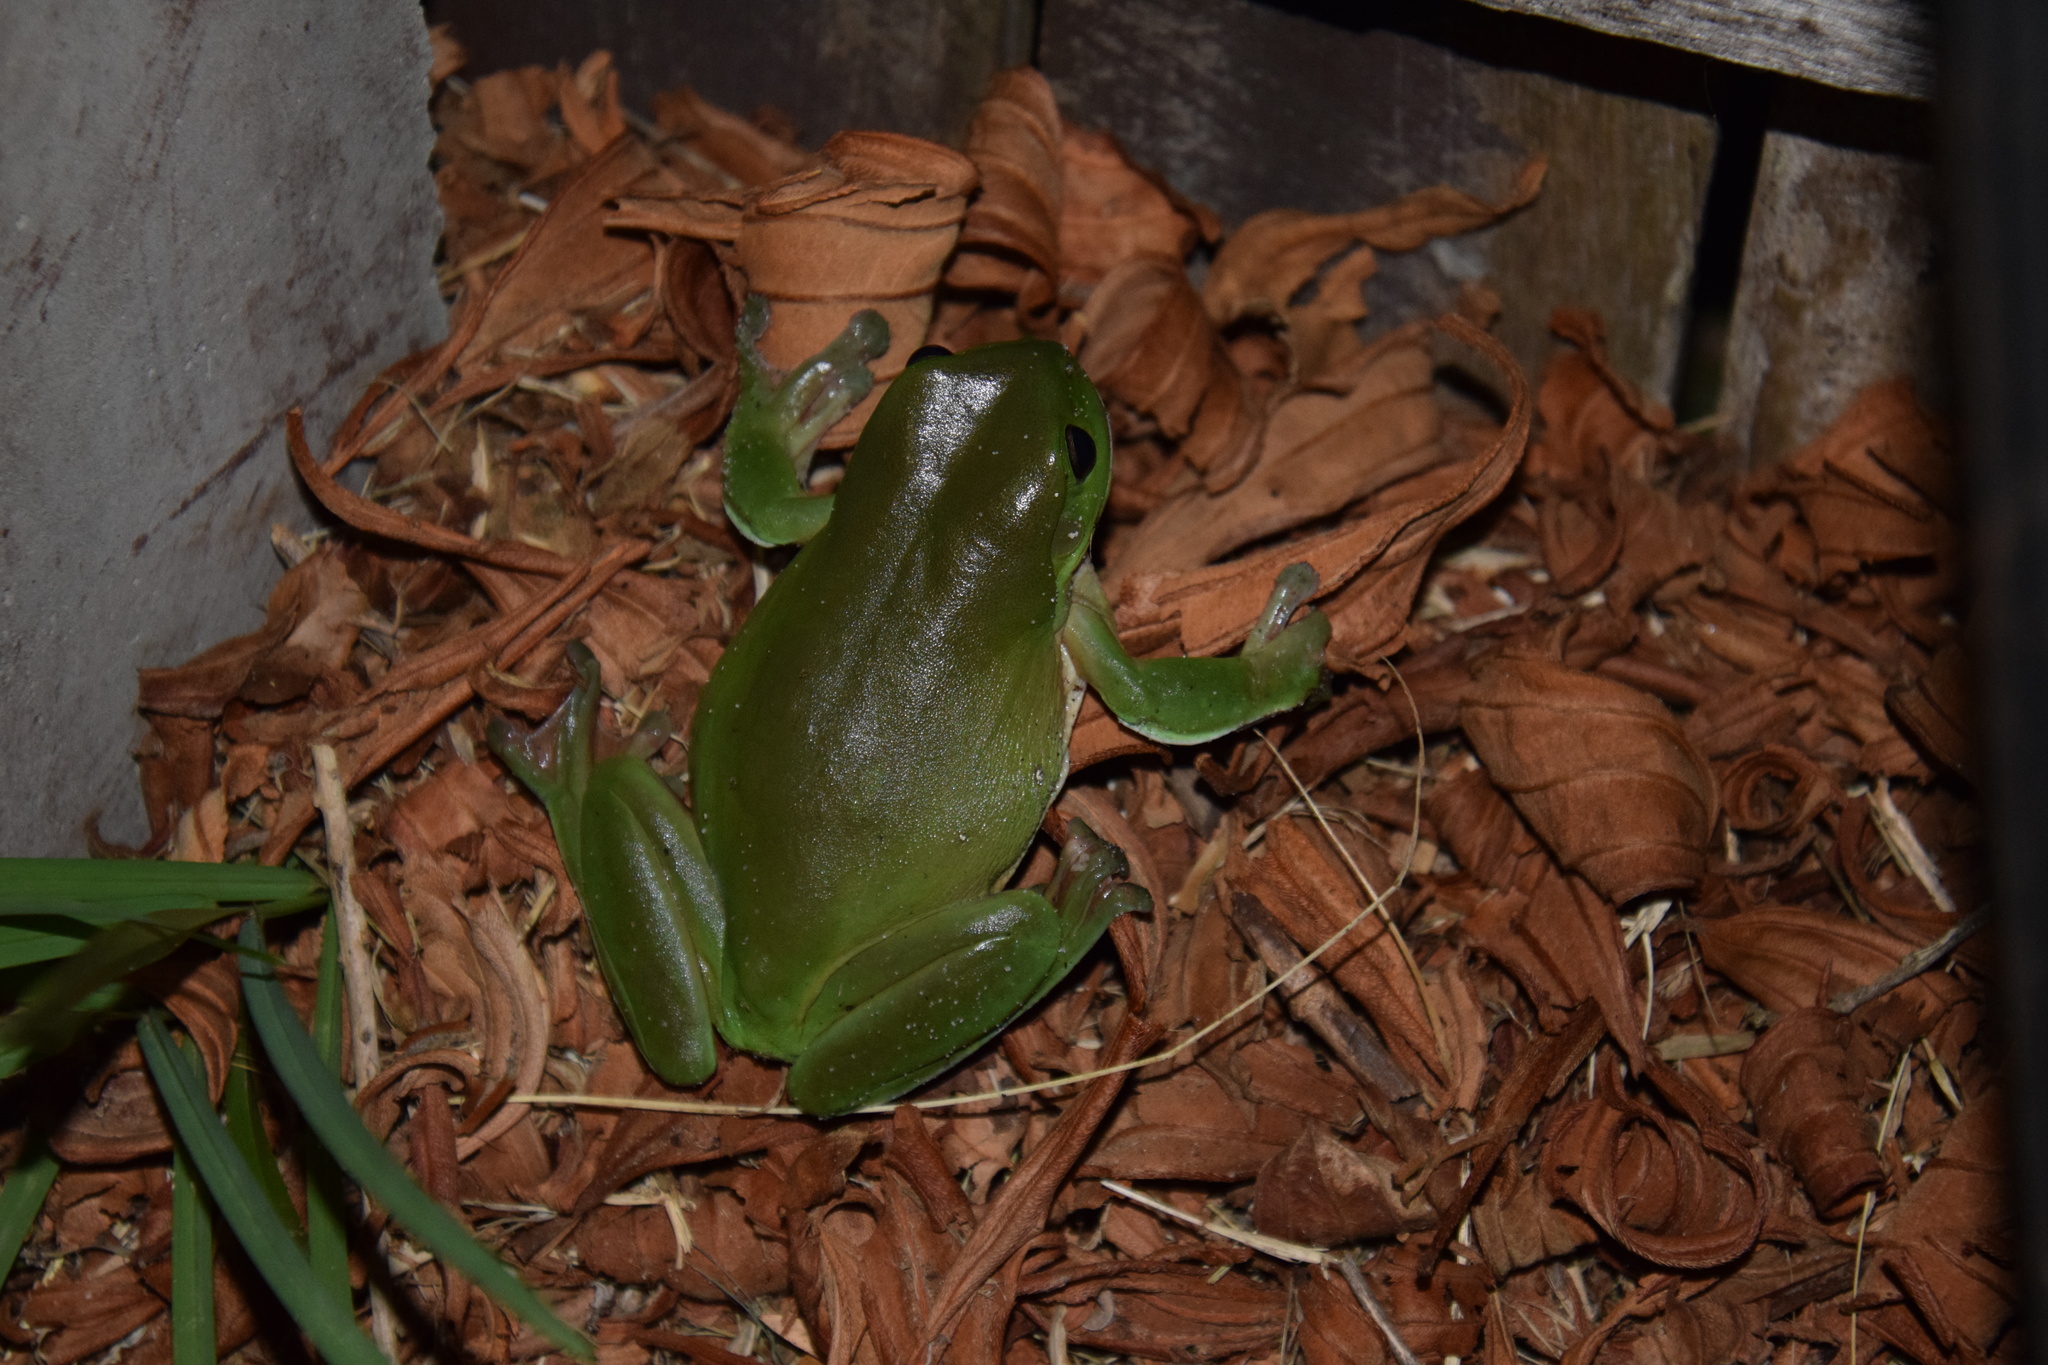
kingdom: Animalia
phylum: Chordata
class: Amphibia
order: Anura
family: Pelodryadidae
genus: Ranoidea
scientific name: Ranoidea caerulea
